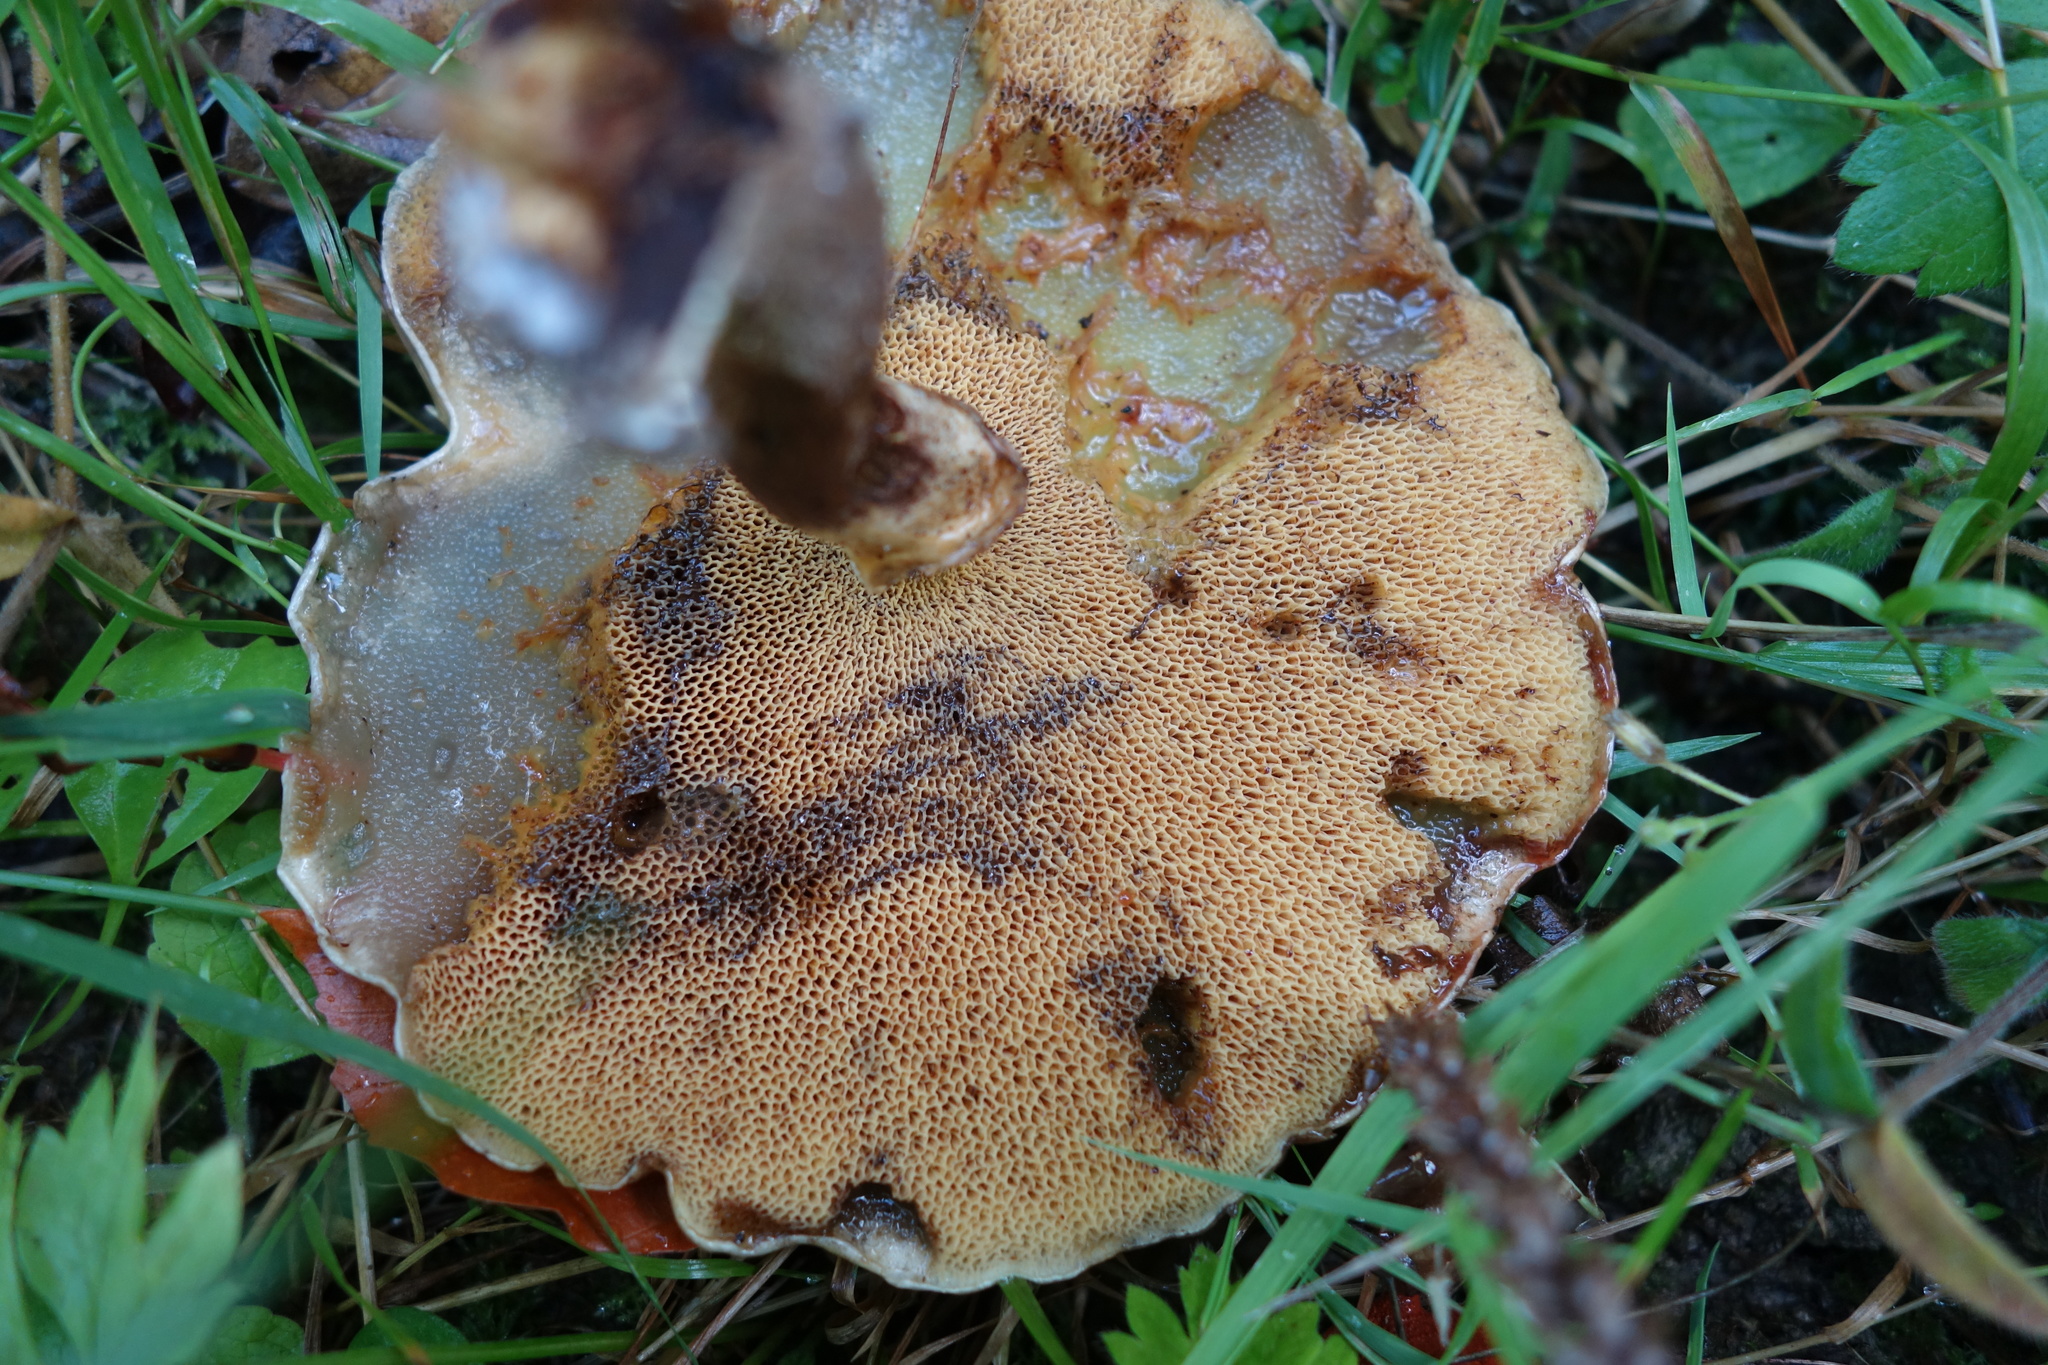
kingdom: Fungi
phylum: Basidiomycota
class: Agaricomycetes
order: Boletales
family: Suillaceae
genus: Suillus
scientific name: Suillus grevillei
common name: Larch bolete
